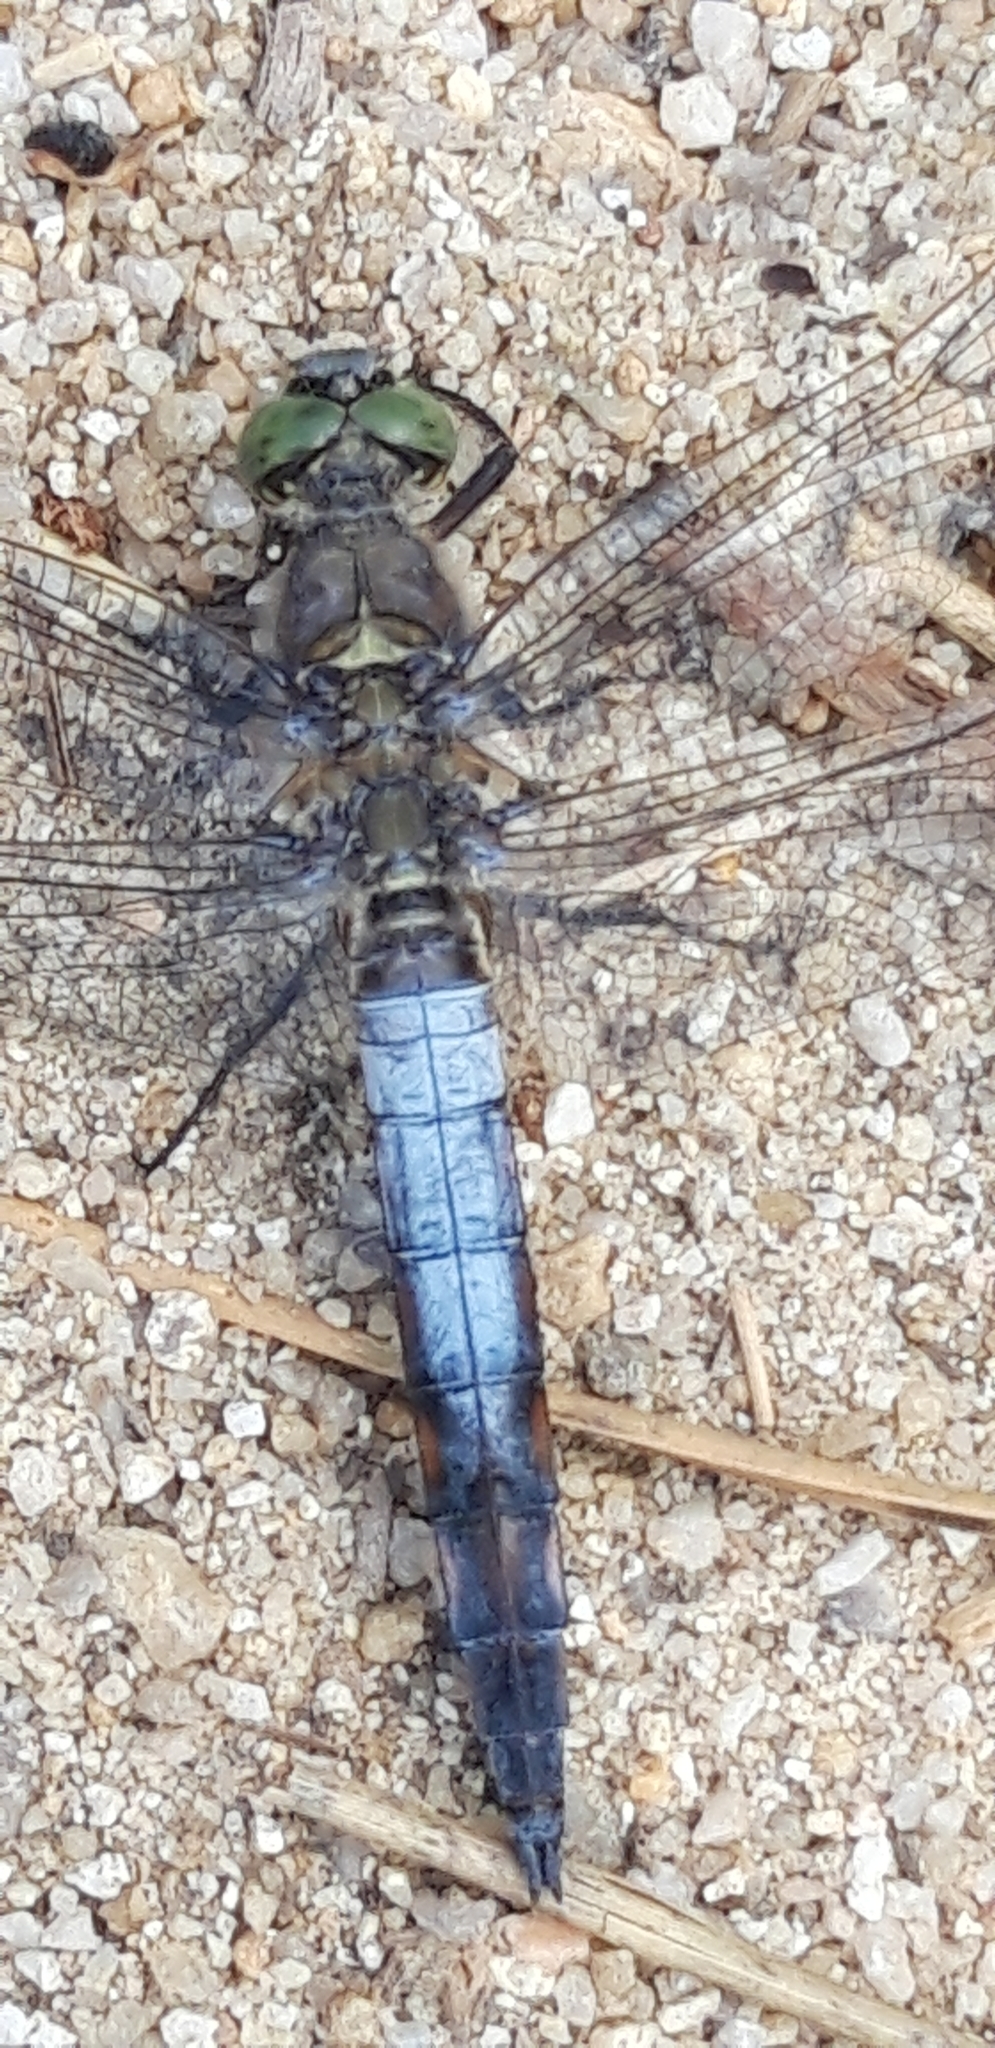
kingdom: Animalia
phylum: Arthropoda
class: Insecta
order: Odonata
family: Libellulidae
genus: Orthetrum
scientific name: Orthetrum cancellatum
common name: Black-tailed skimmer
